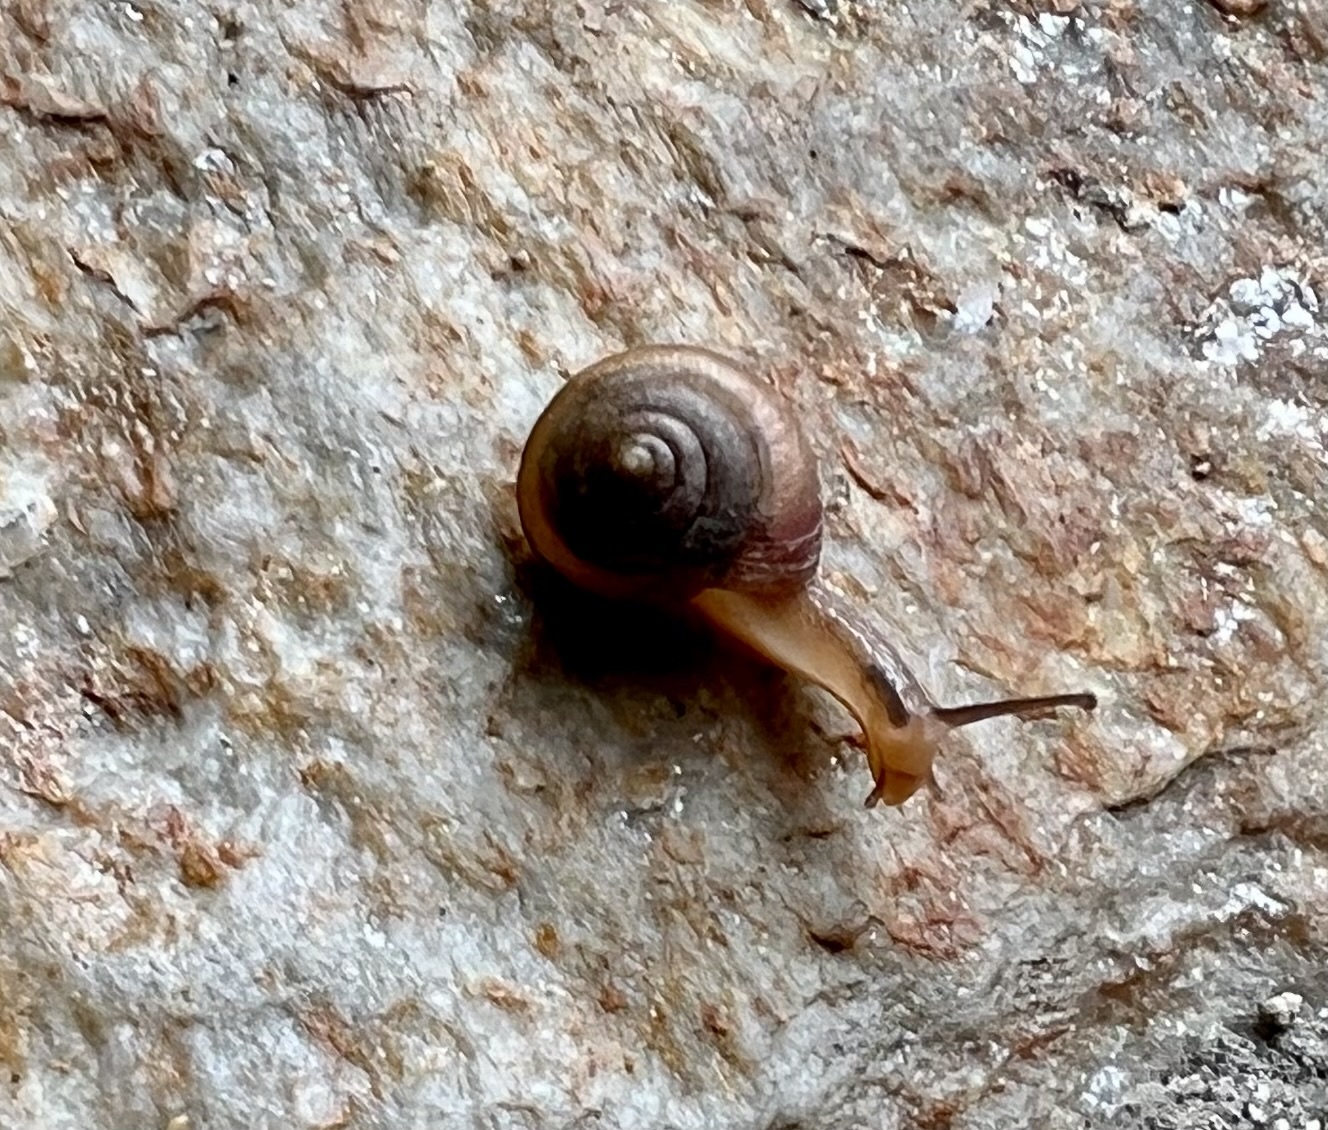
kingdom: Animalia
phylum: Mollusca
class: Gastropoda
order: Stylommatophora
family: Camaenidae
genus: Bradybaena
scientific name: Bradybaena similaris
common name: Asian trampsnail
